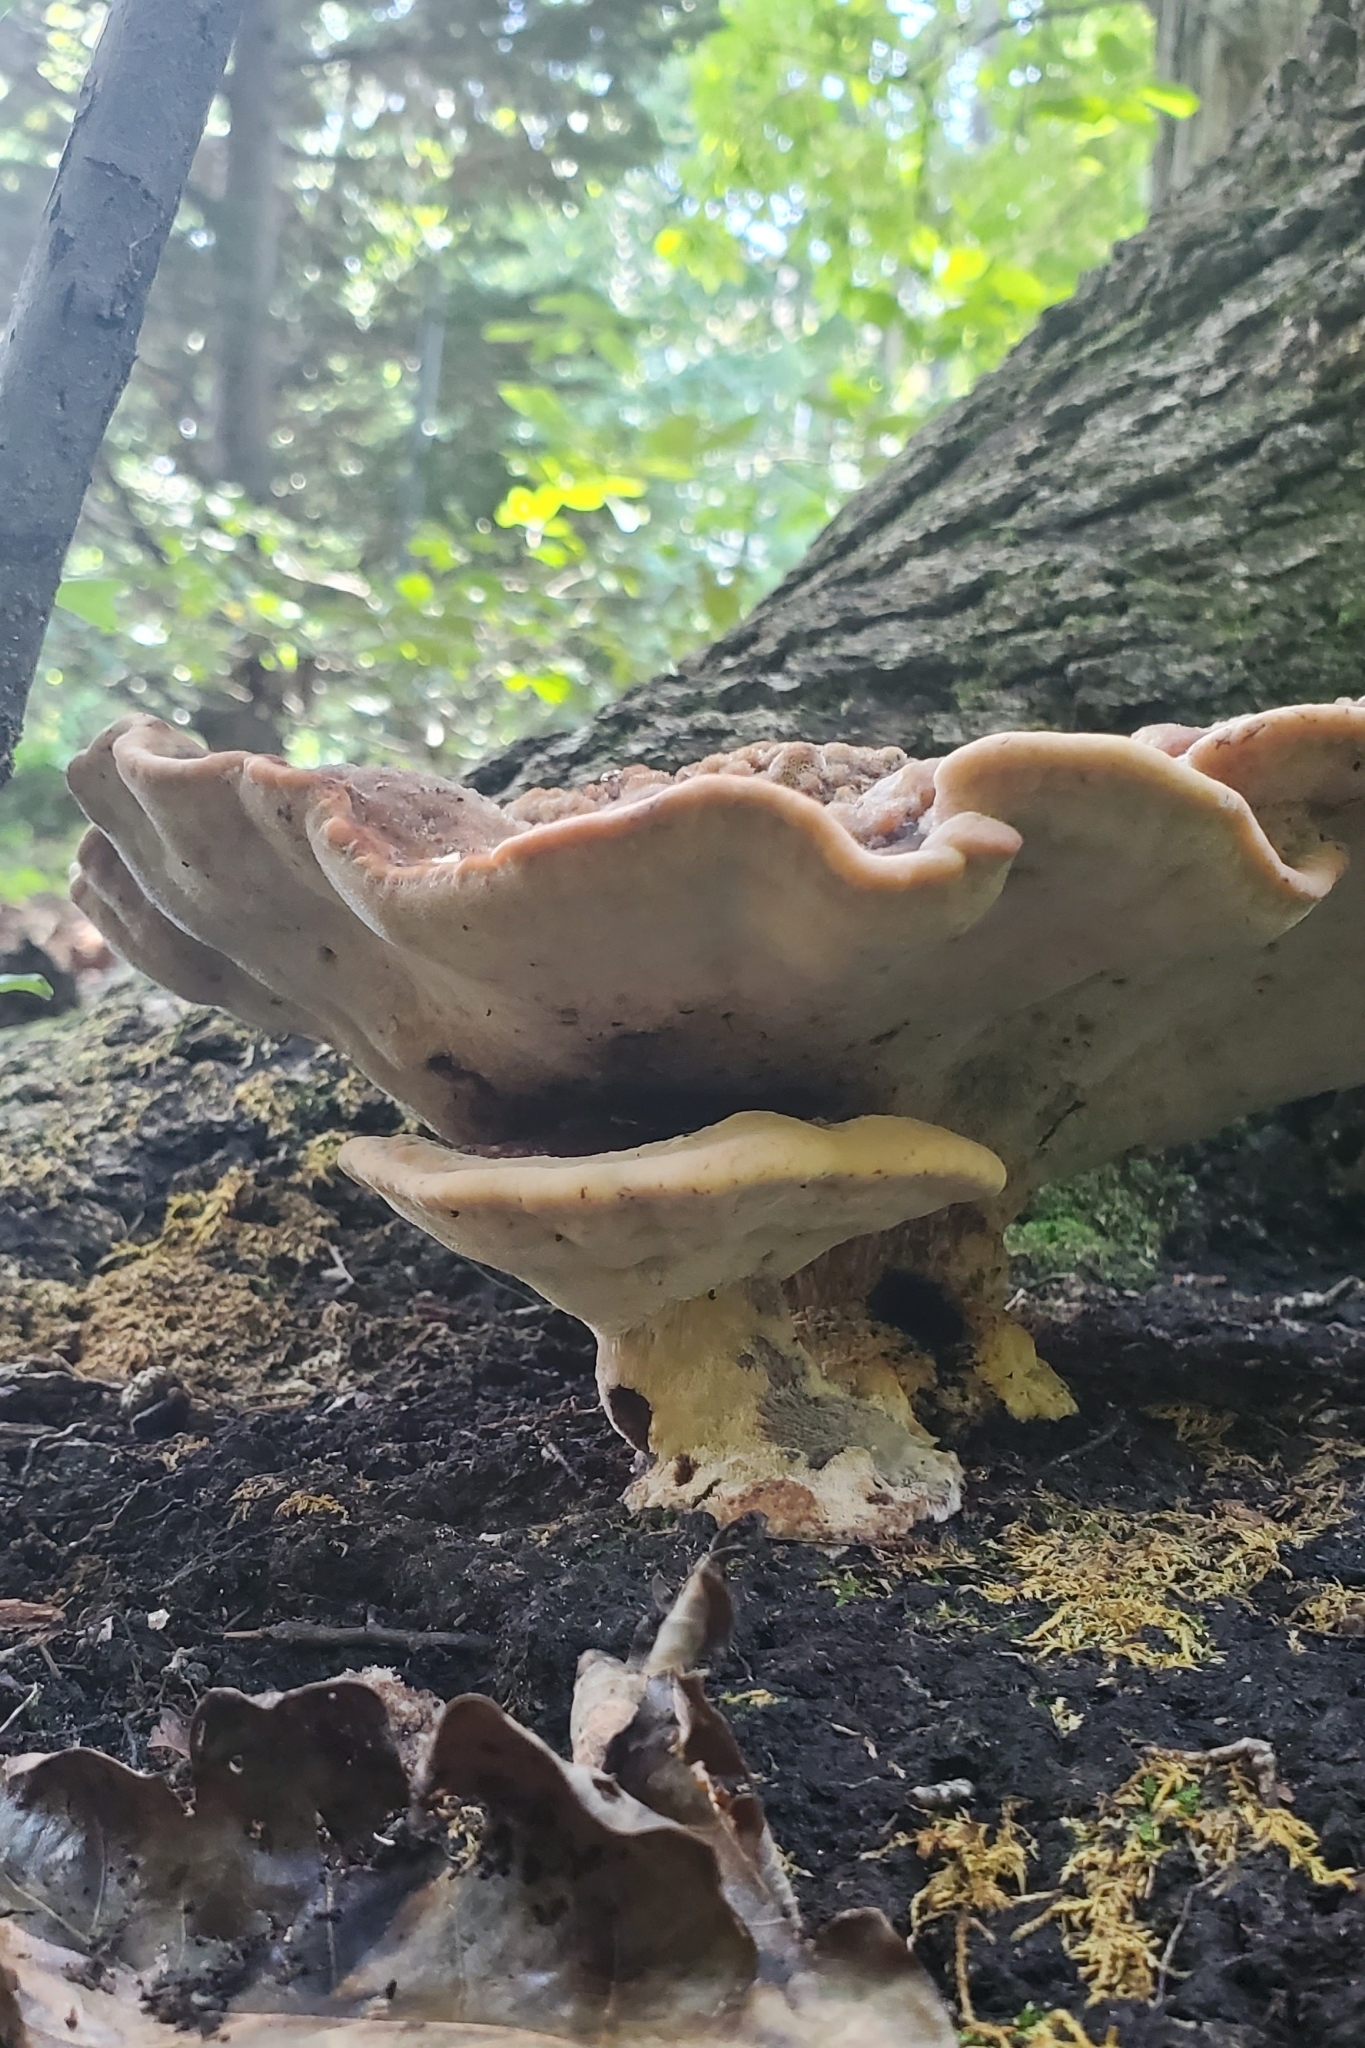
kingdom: Fungi
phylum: Basidiomycota
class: Agaricomycetes
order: Polyporales
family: Laetiporaceae
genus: Berkcurtia
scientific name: Berkcurtia persicina
